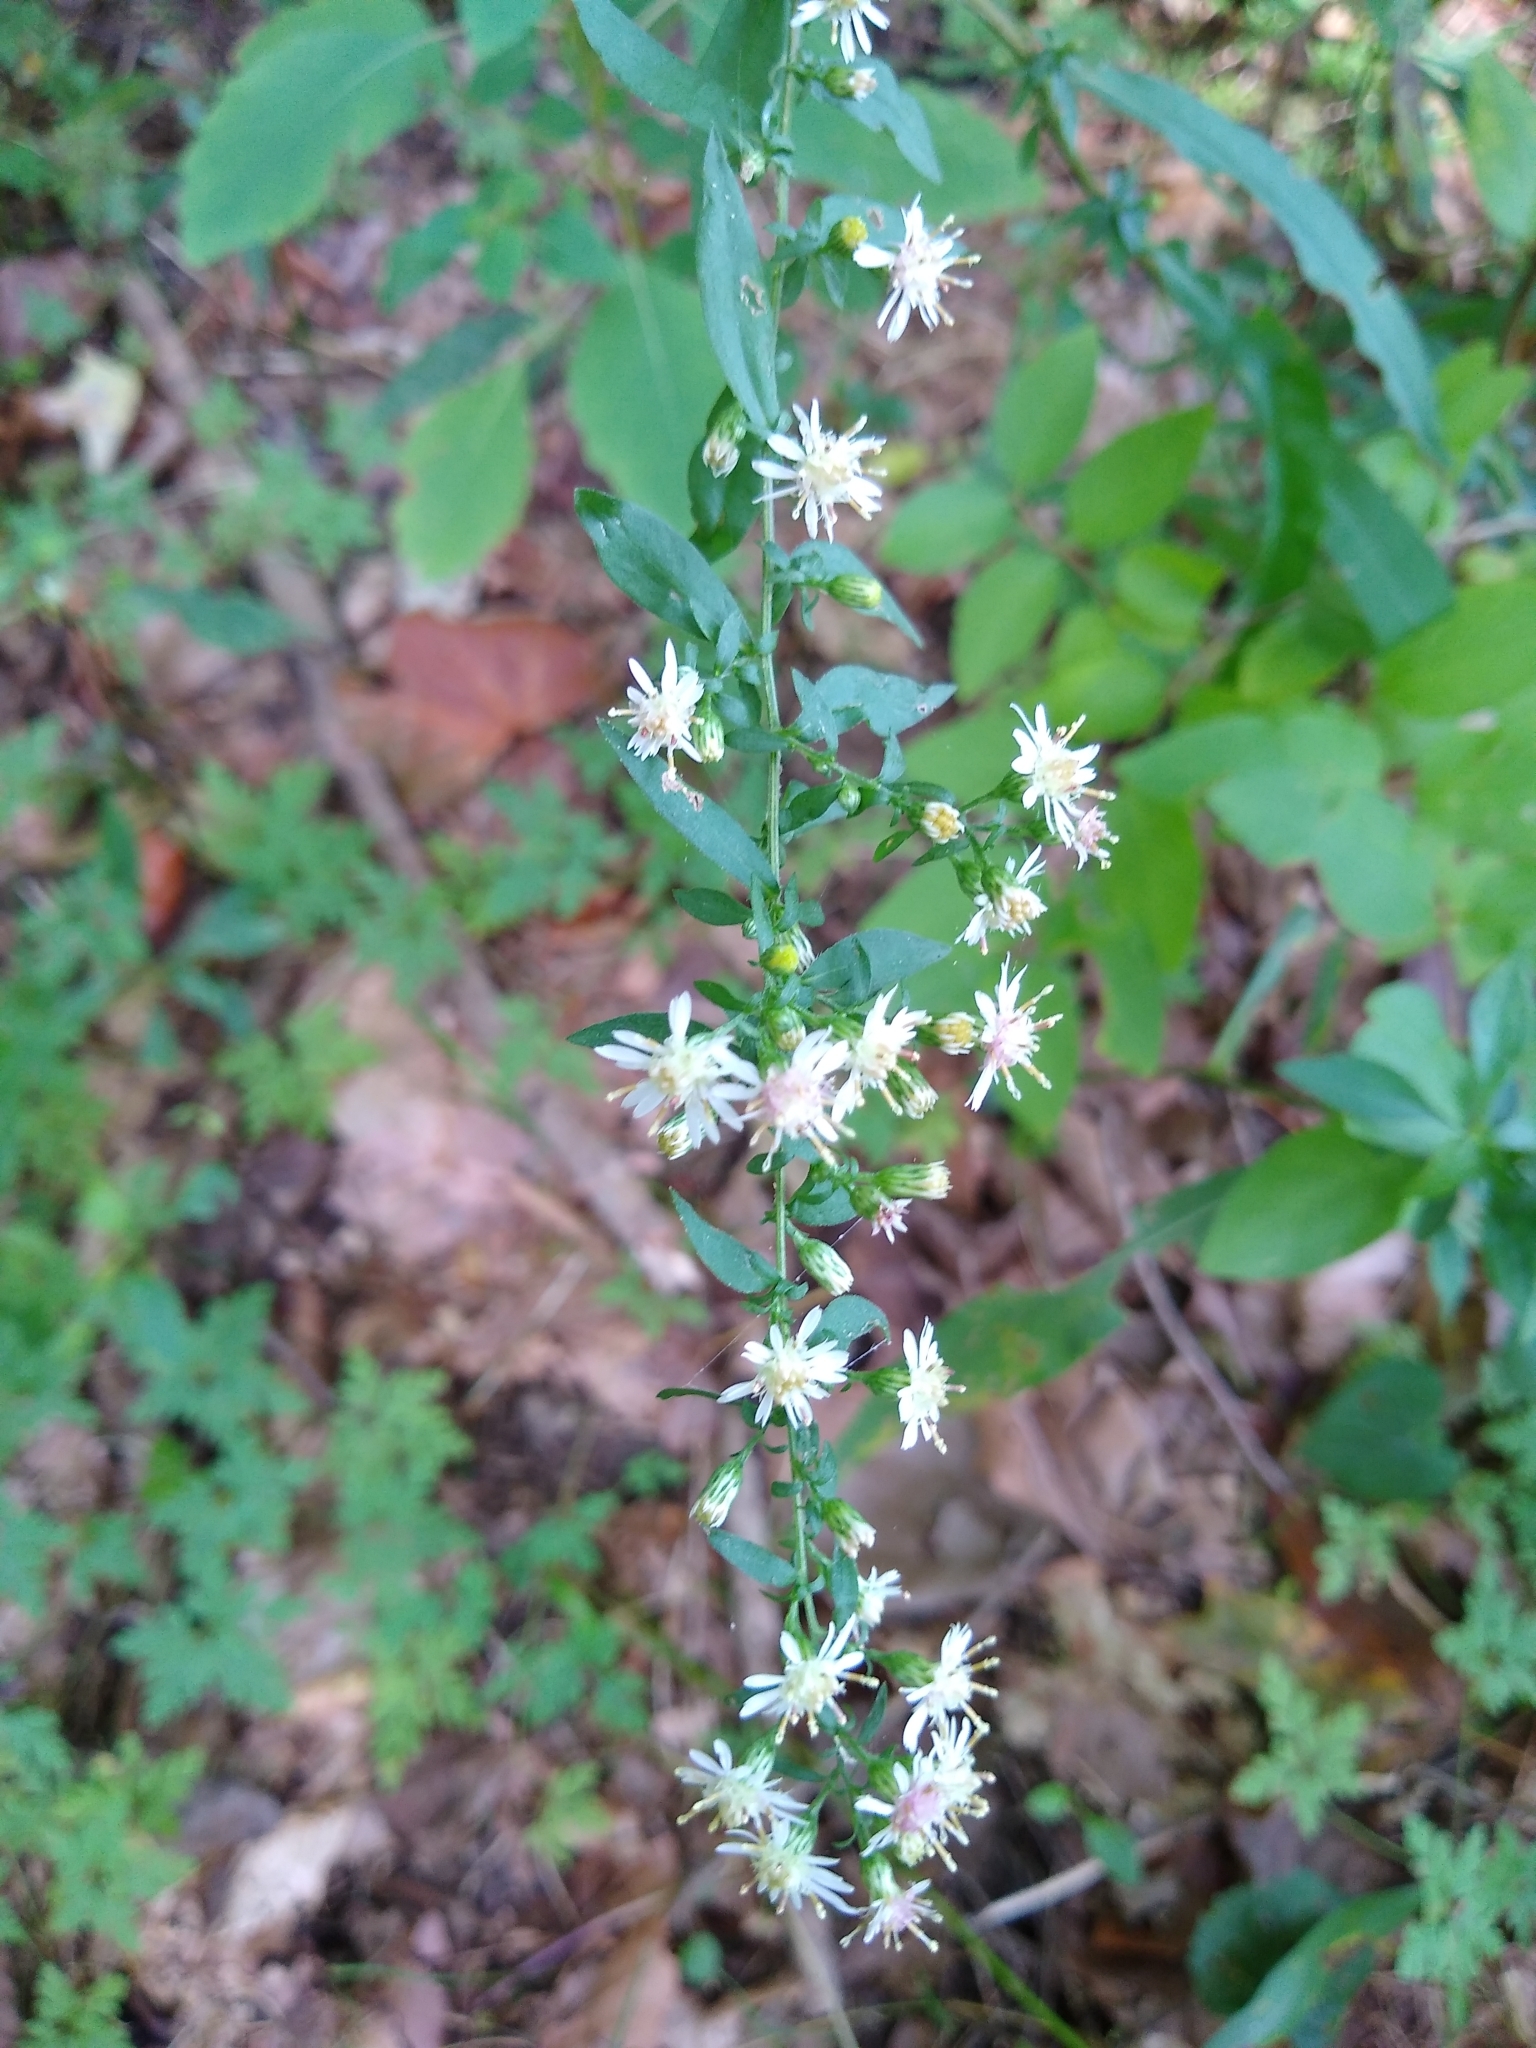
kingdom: Plantae
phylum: Tracheophyta
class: Magnoliopsida
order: Asterales
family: Asteraceae
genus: Symphyotrichum
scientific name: Symphyotrichum lateriflorum
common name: Calico aster
